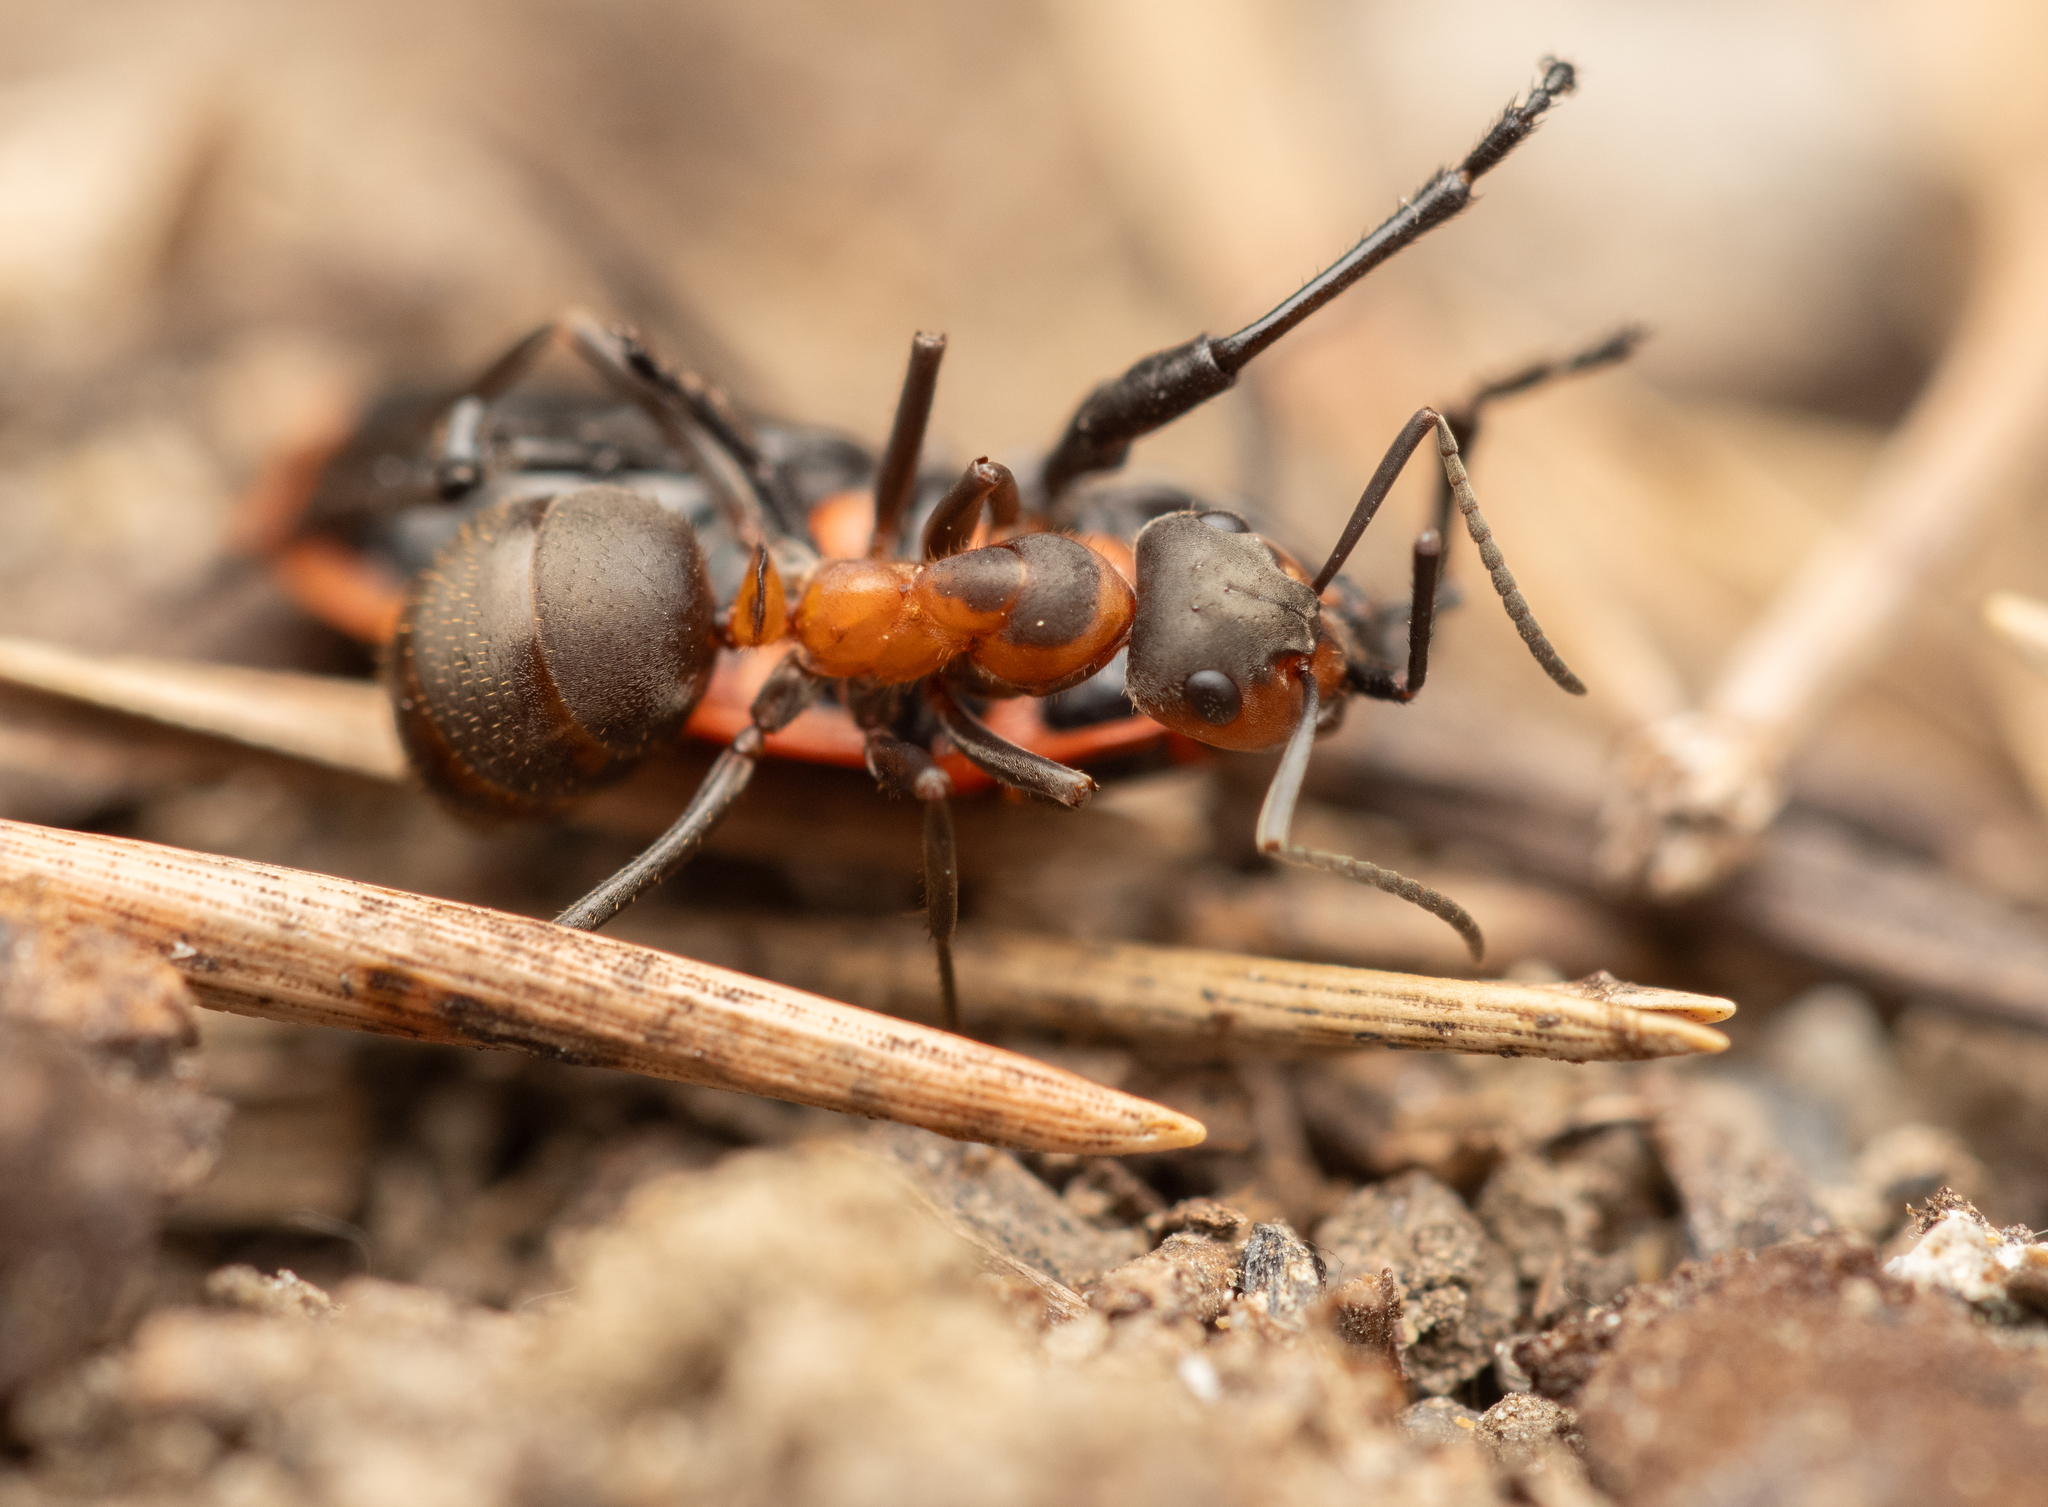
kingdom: Animalia
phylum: Arthropoda
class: Insecta
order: Hymenoptera
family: Formicidae
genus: Formica
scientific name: Formica pratensis
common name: European red wood ant
